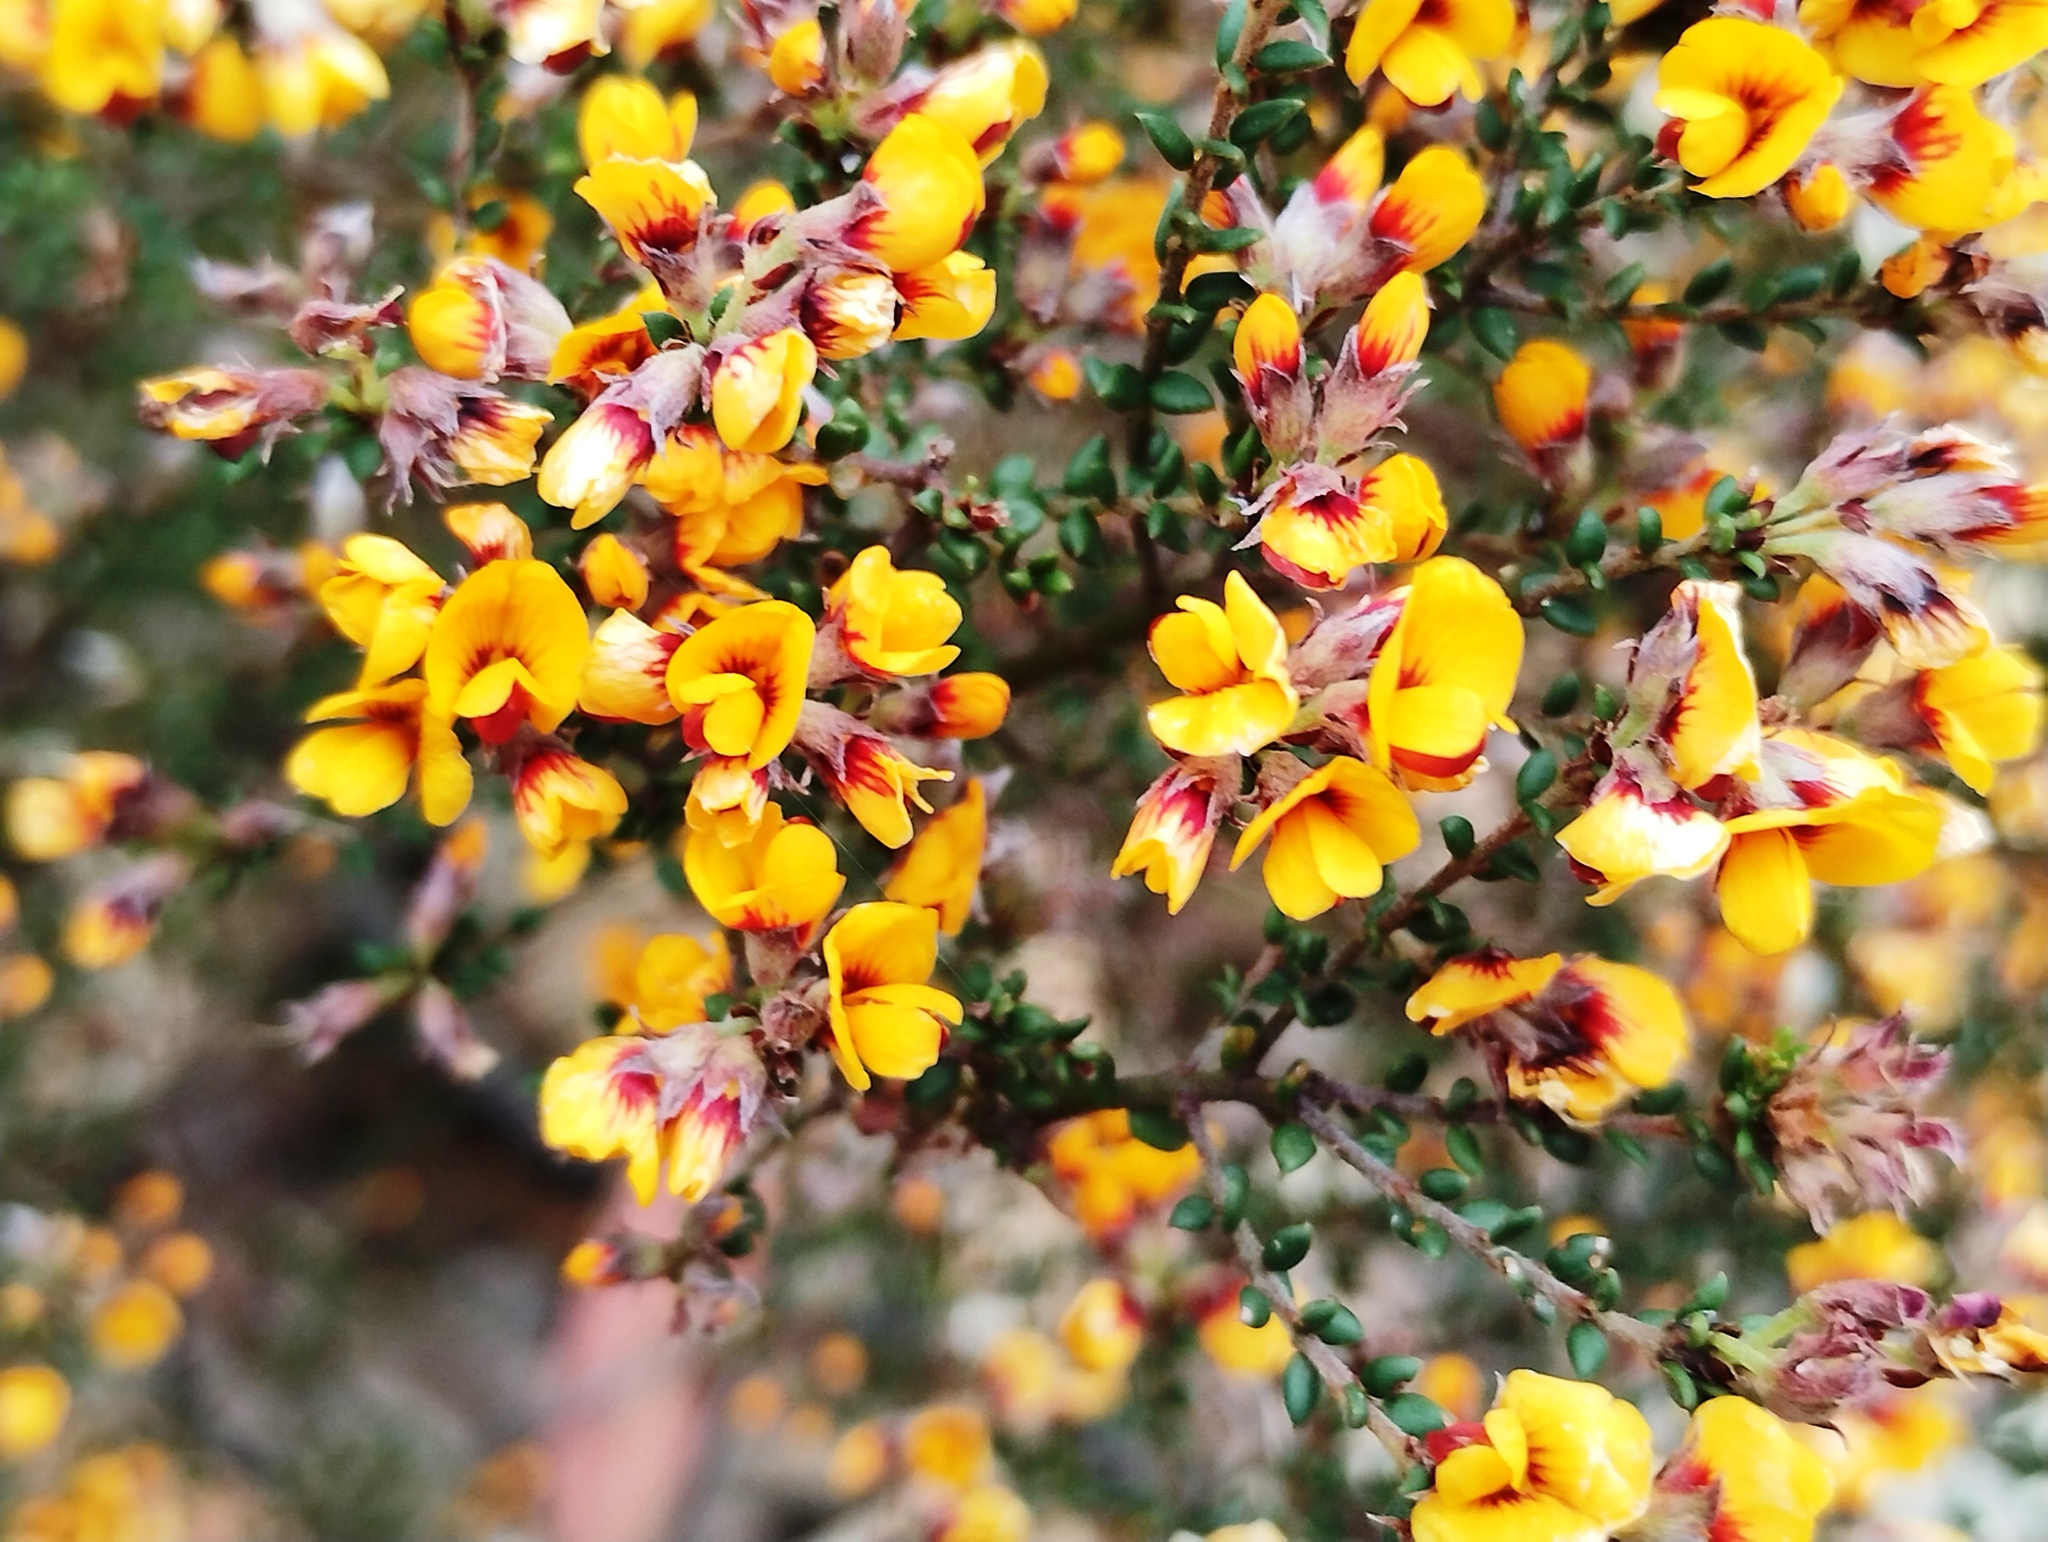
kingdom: Plantae
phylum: Tracheophyta
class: Magnoliopsida
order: Fabales
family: Fabaceae
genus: Pultenaea
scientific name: Pultenaea gunnii
